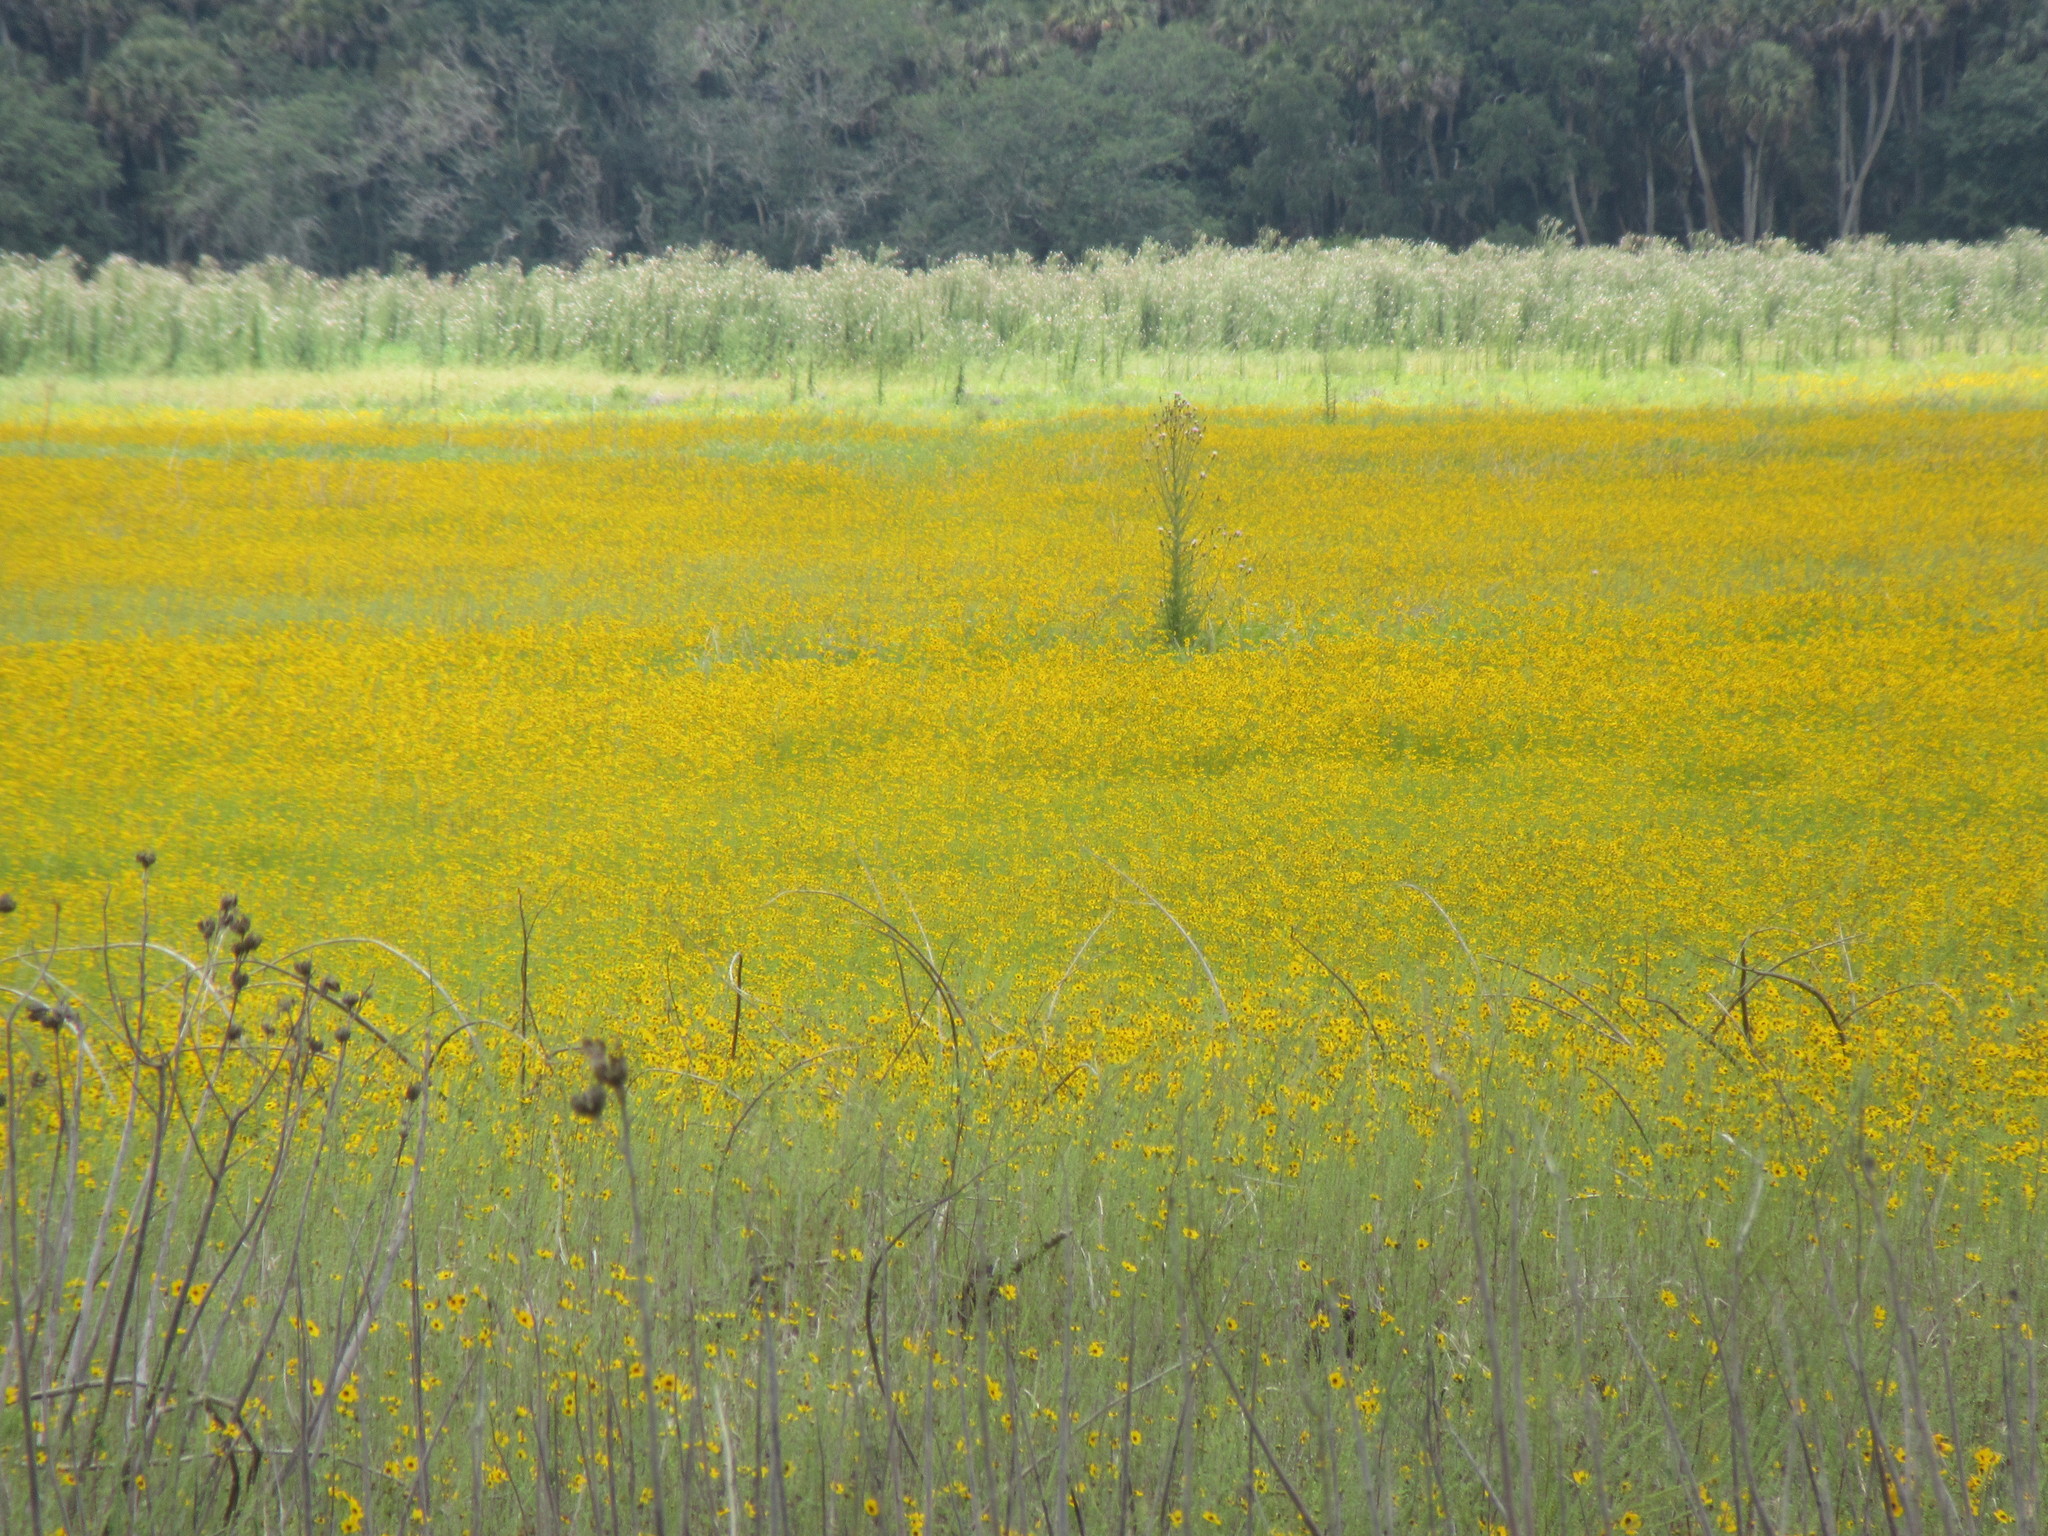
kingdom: Plantae
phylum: Tracheophyta
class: Magnoliopsida
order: Asterales
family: Asteraceae
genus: Coreopsis
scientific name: Coreopsis leavenworthii
